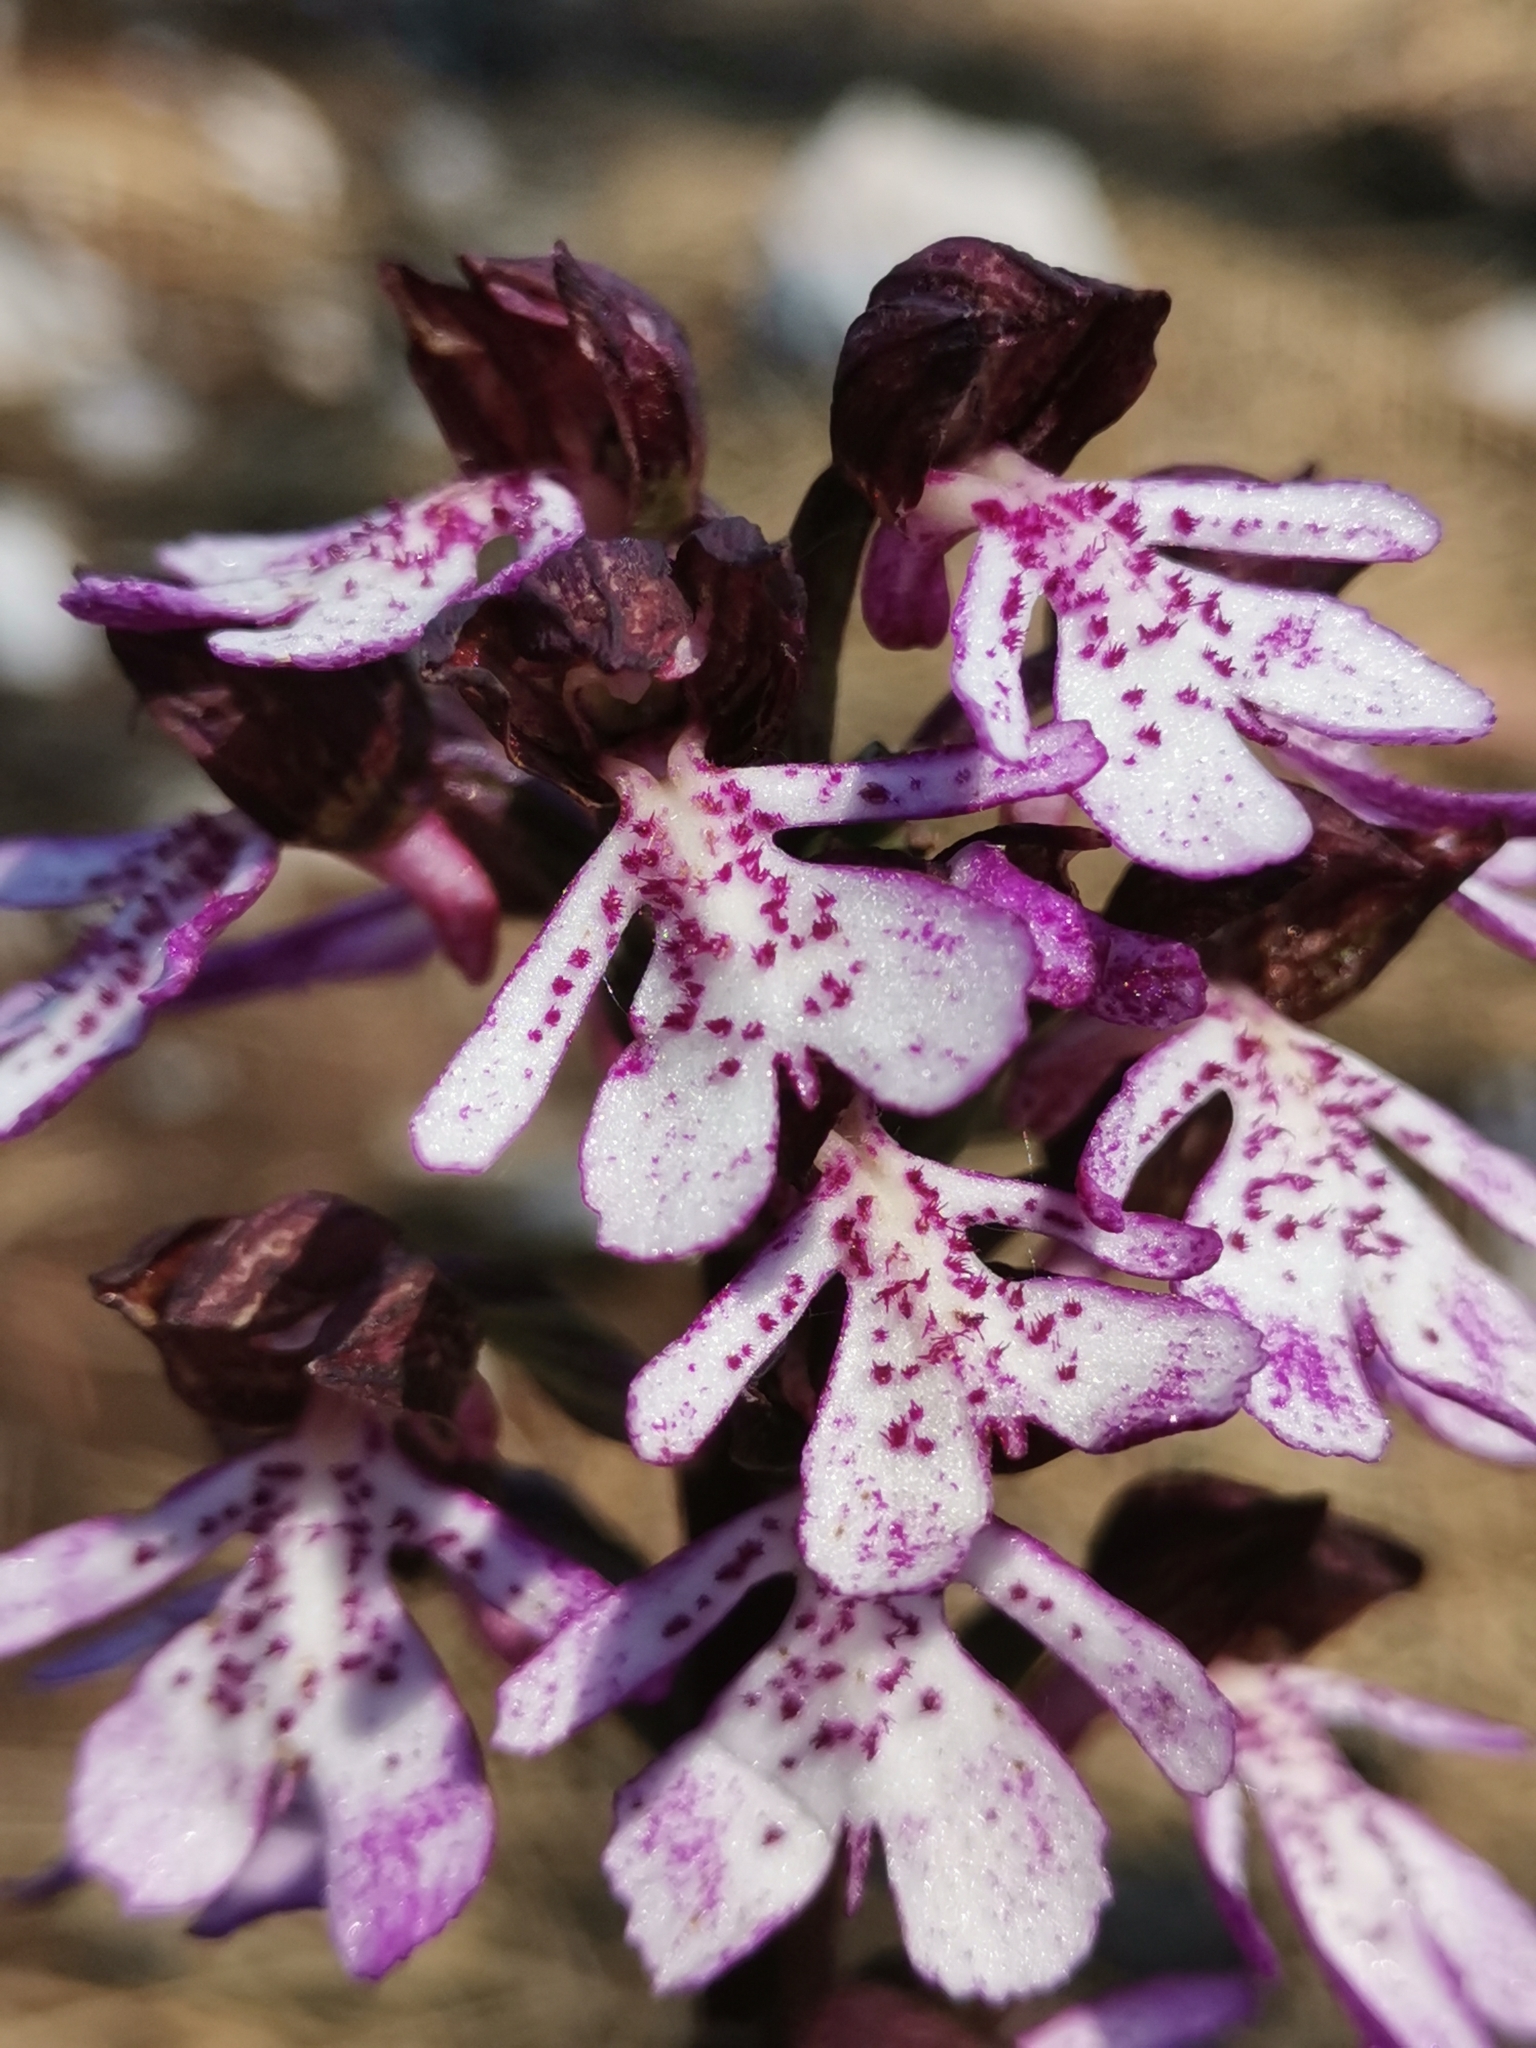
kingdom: Plantae
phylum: Tracheophyta
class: Liliopsida
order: Asparagales
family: Orchidaceae
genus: Orchis
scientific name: Orchis purpurea
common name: Lady orchid
